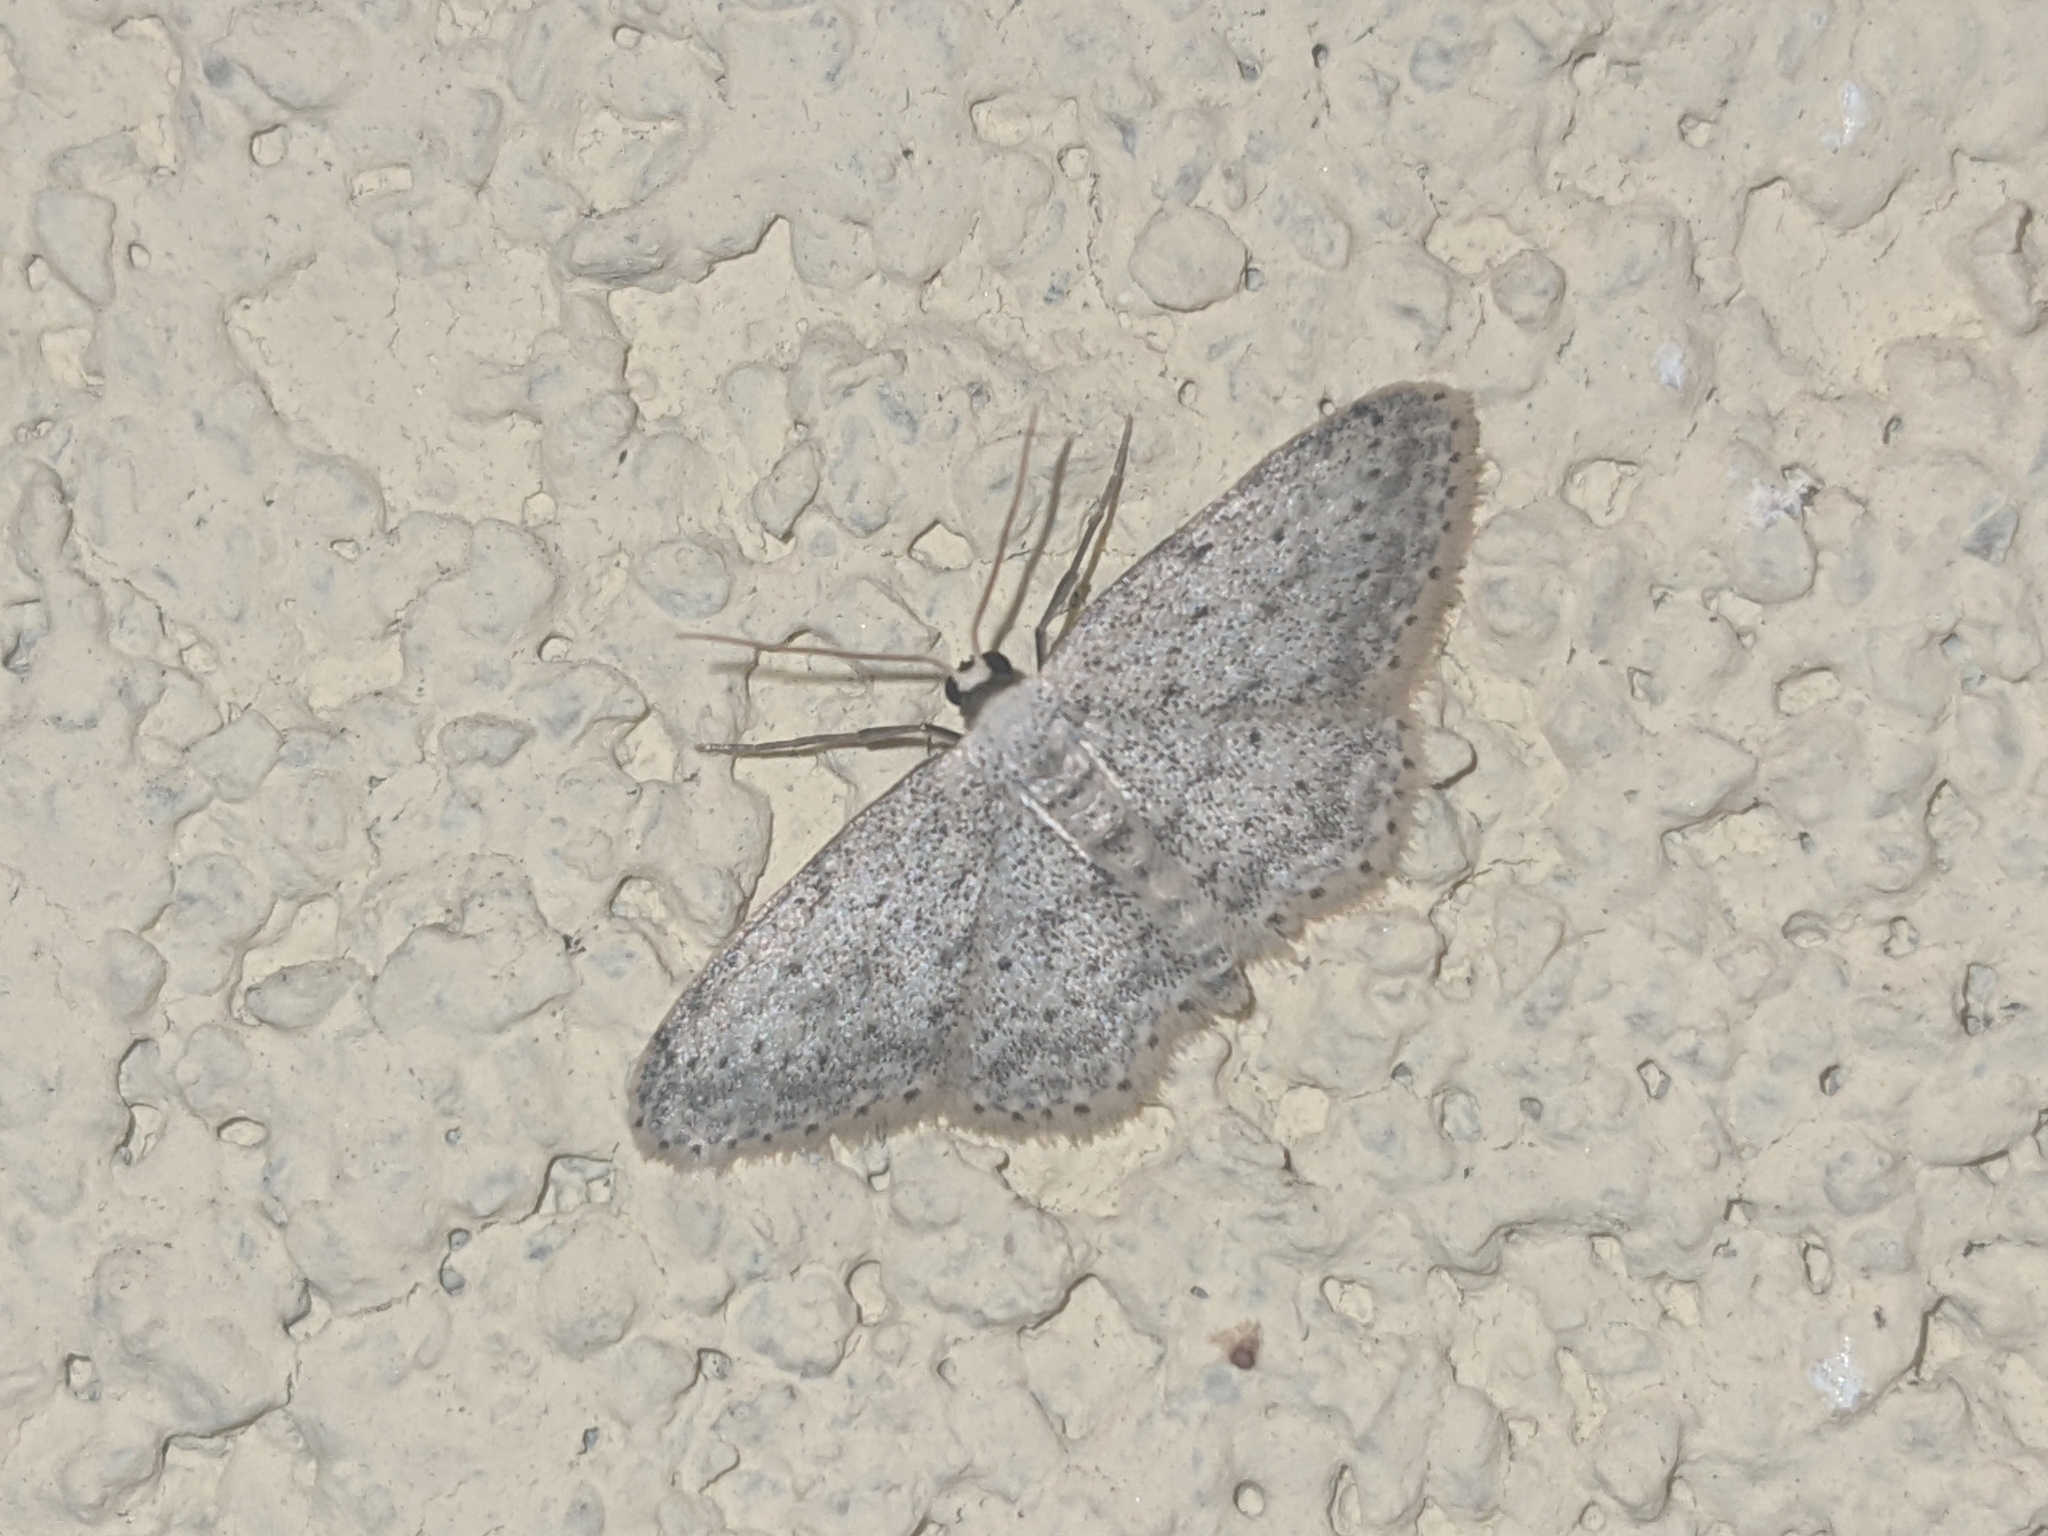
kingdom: Animalia
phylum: Arthropoda
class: Insecta
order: Lepidoptera
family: Geometridae
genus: Idaea
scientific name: Idaea seriata
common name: Small dusty wave
